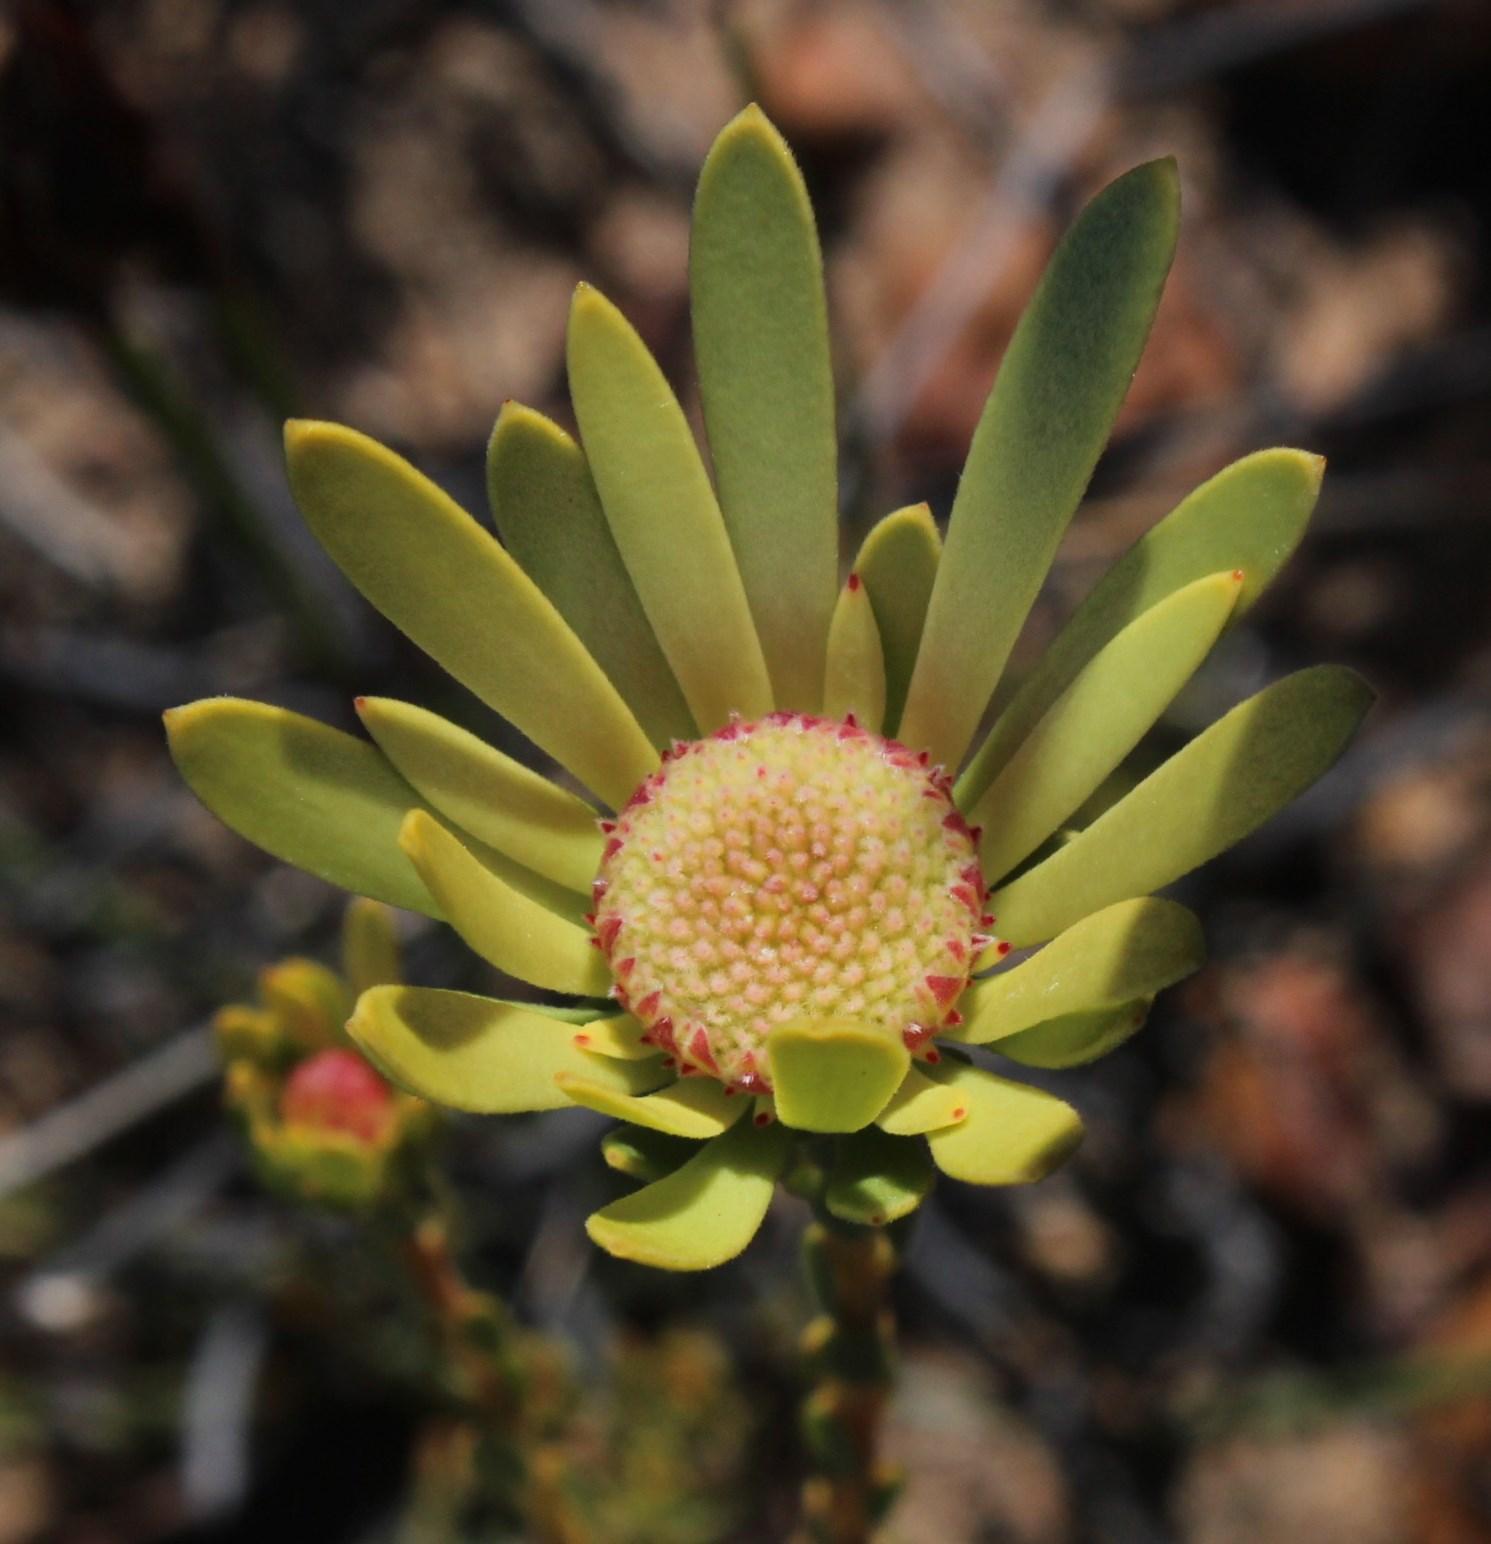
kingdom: Plantae
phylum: Tracheophyta
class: Magnoliopsida
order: Proteales
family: Proteaceae
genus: Leucadendron
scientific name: Leucadendron nitidum
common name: Bokkeveld conebush
